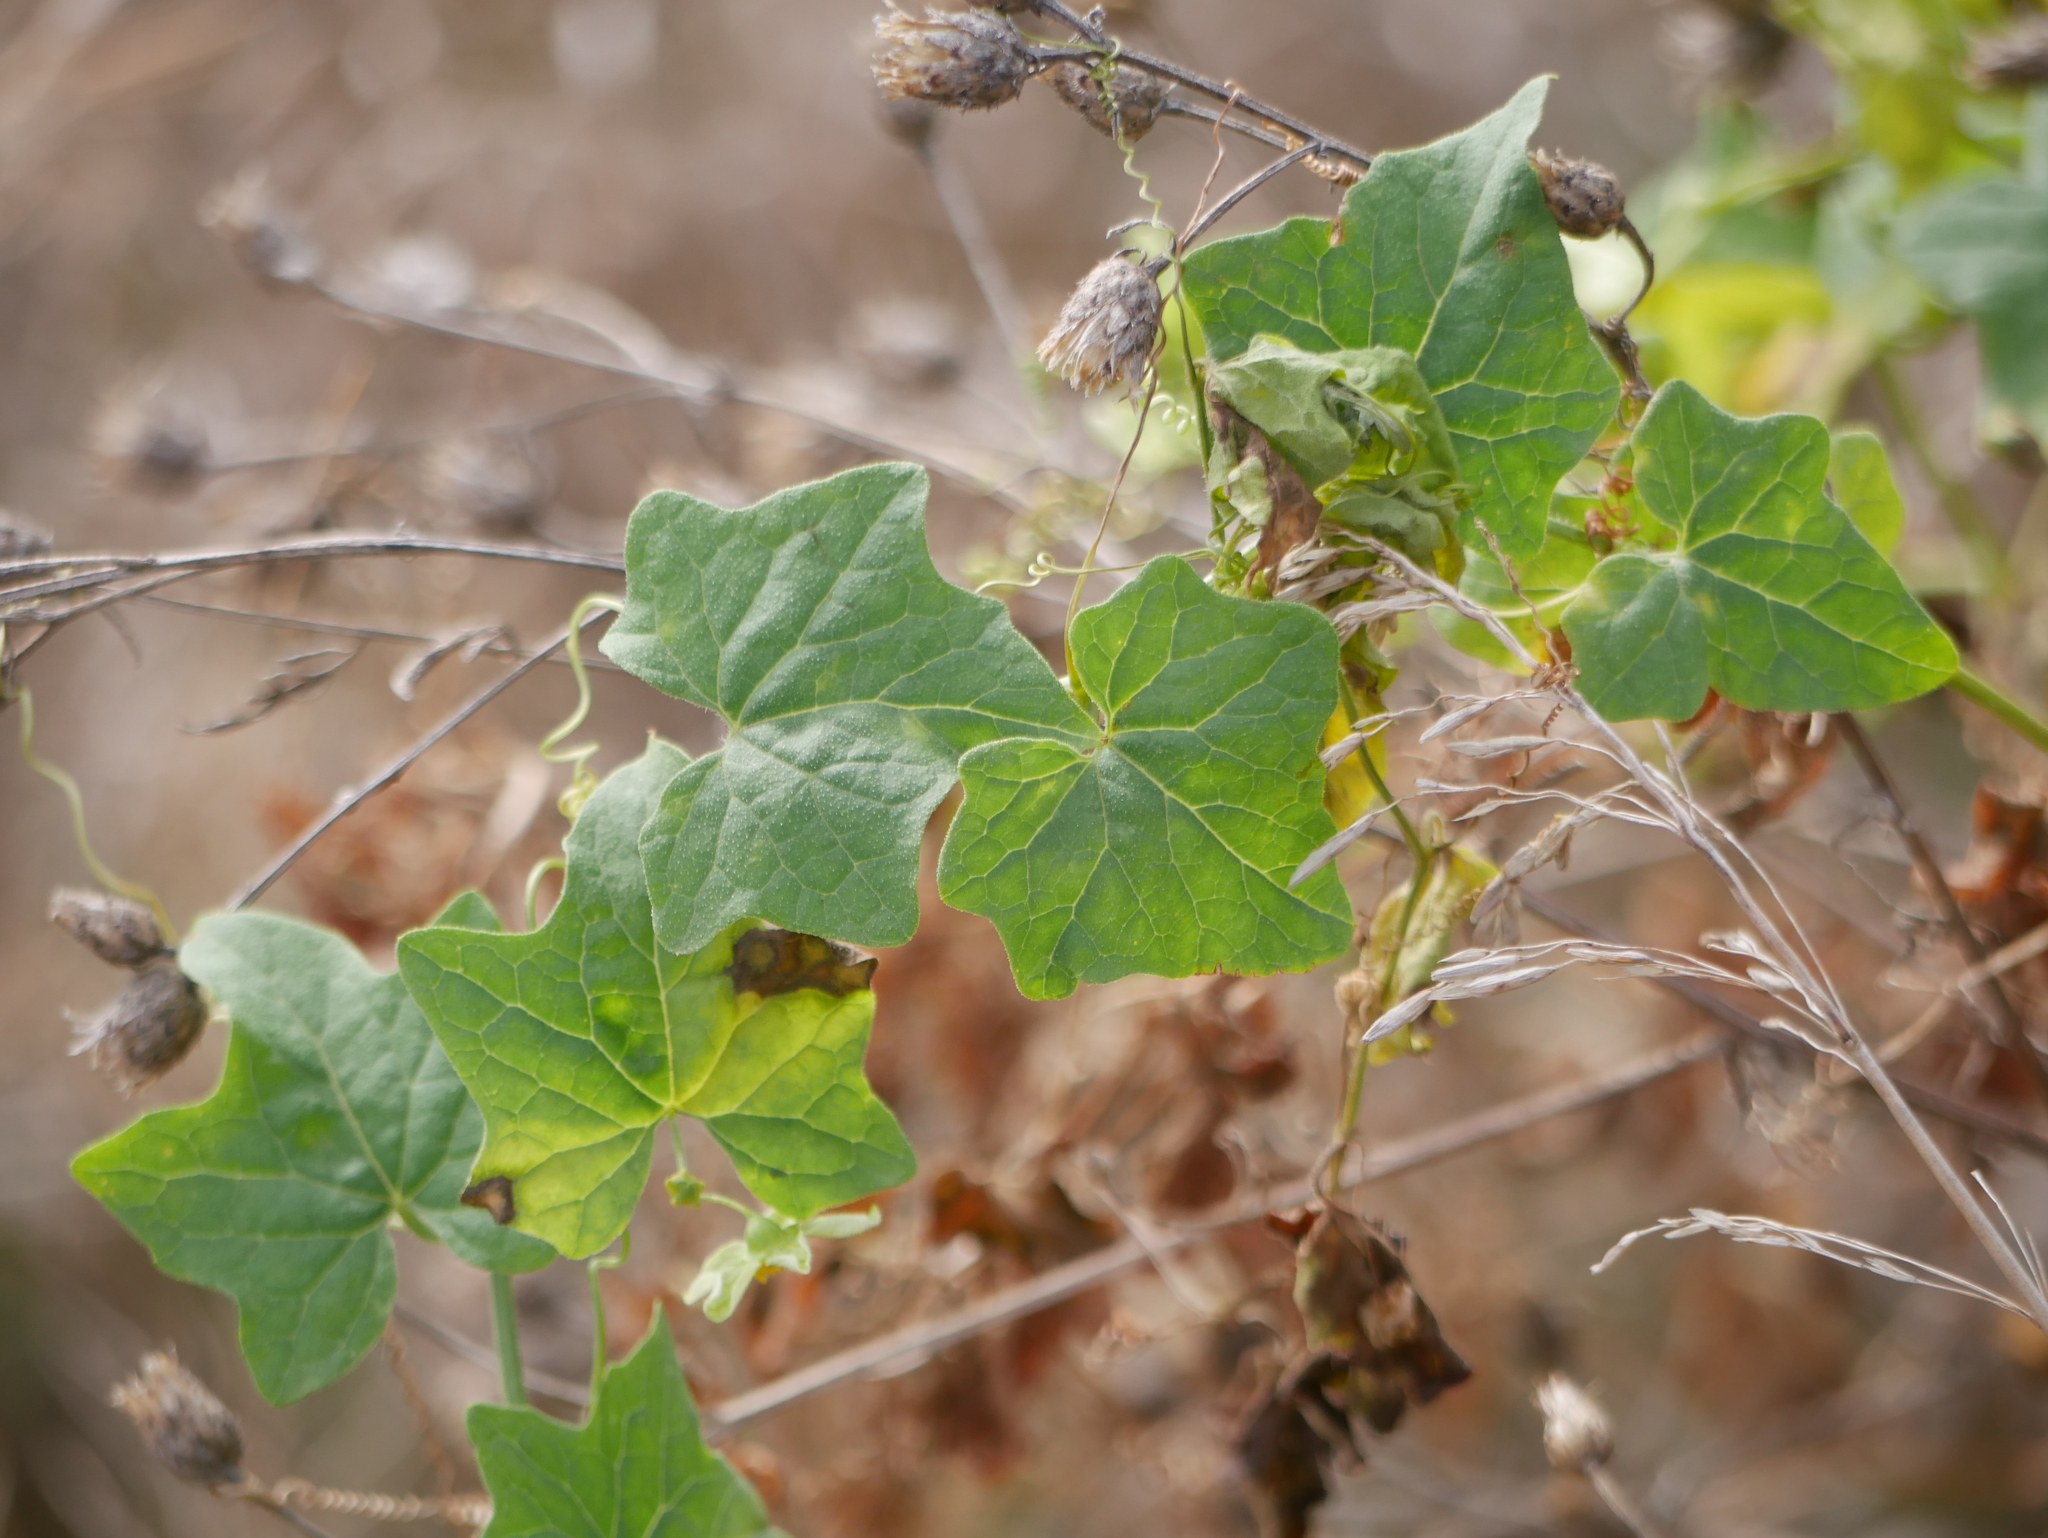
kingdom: Plantae
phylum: Tracheophyta
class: Magnoliopsida
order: Cucurbitales
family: Cucurbitaceae
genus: Bryonia
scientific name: Bryonia cretica
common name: Cretan bryony
